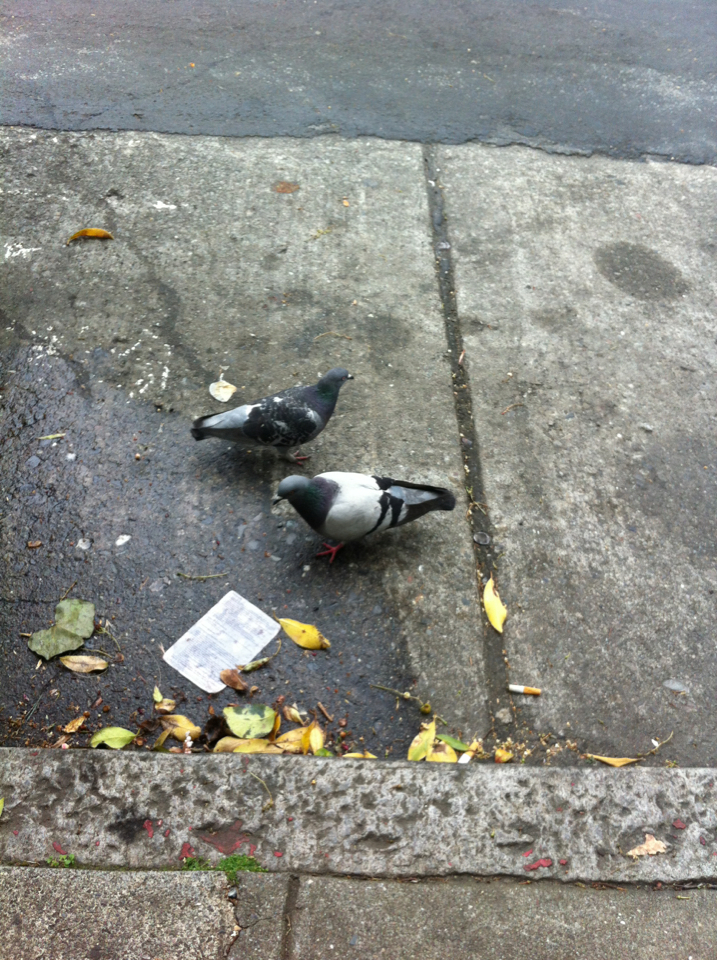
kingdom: Animalia
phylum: Chordata
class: Aves
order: Columbiformes
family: Columbidae
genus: Columba
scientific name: Columba livia
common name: Rock pigeon
